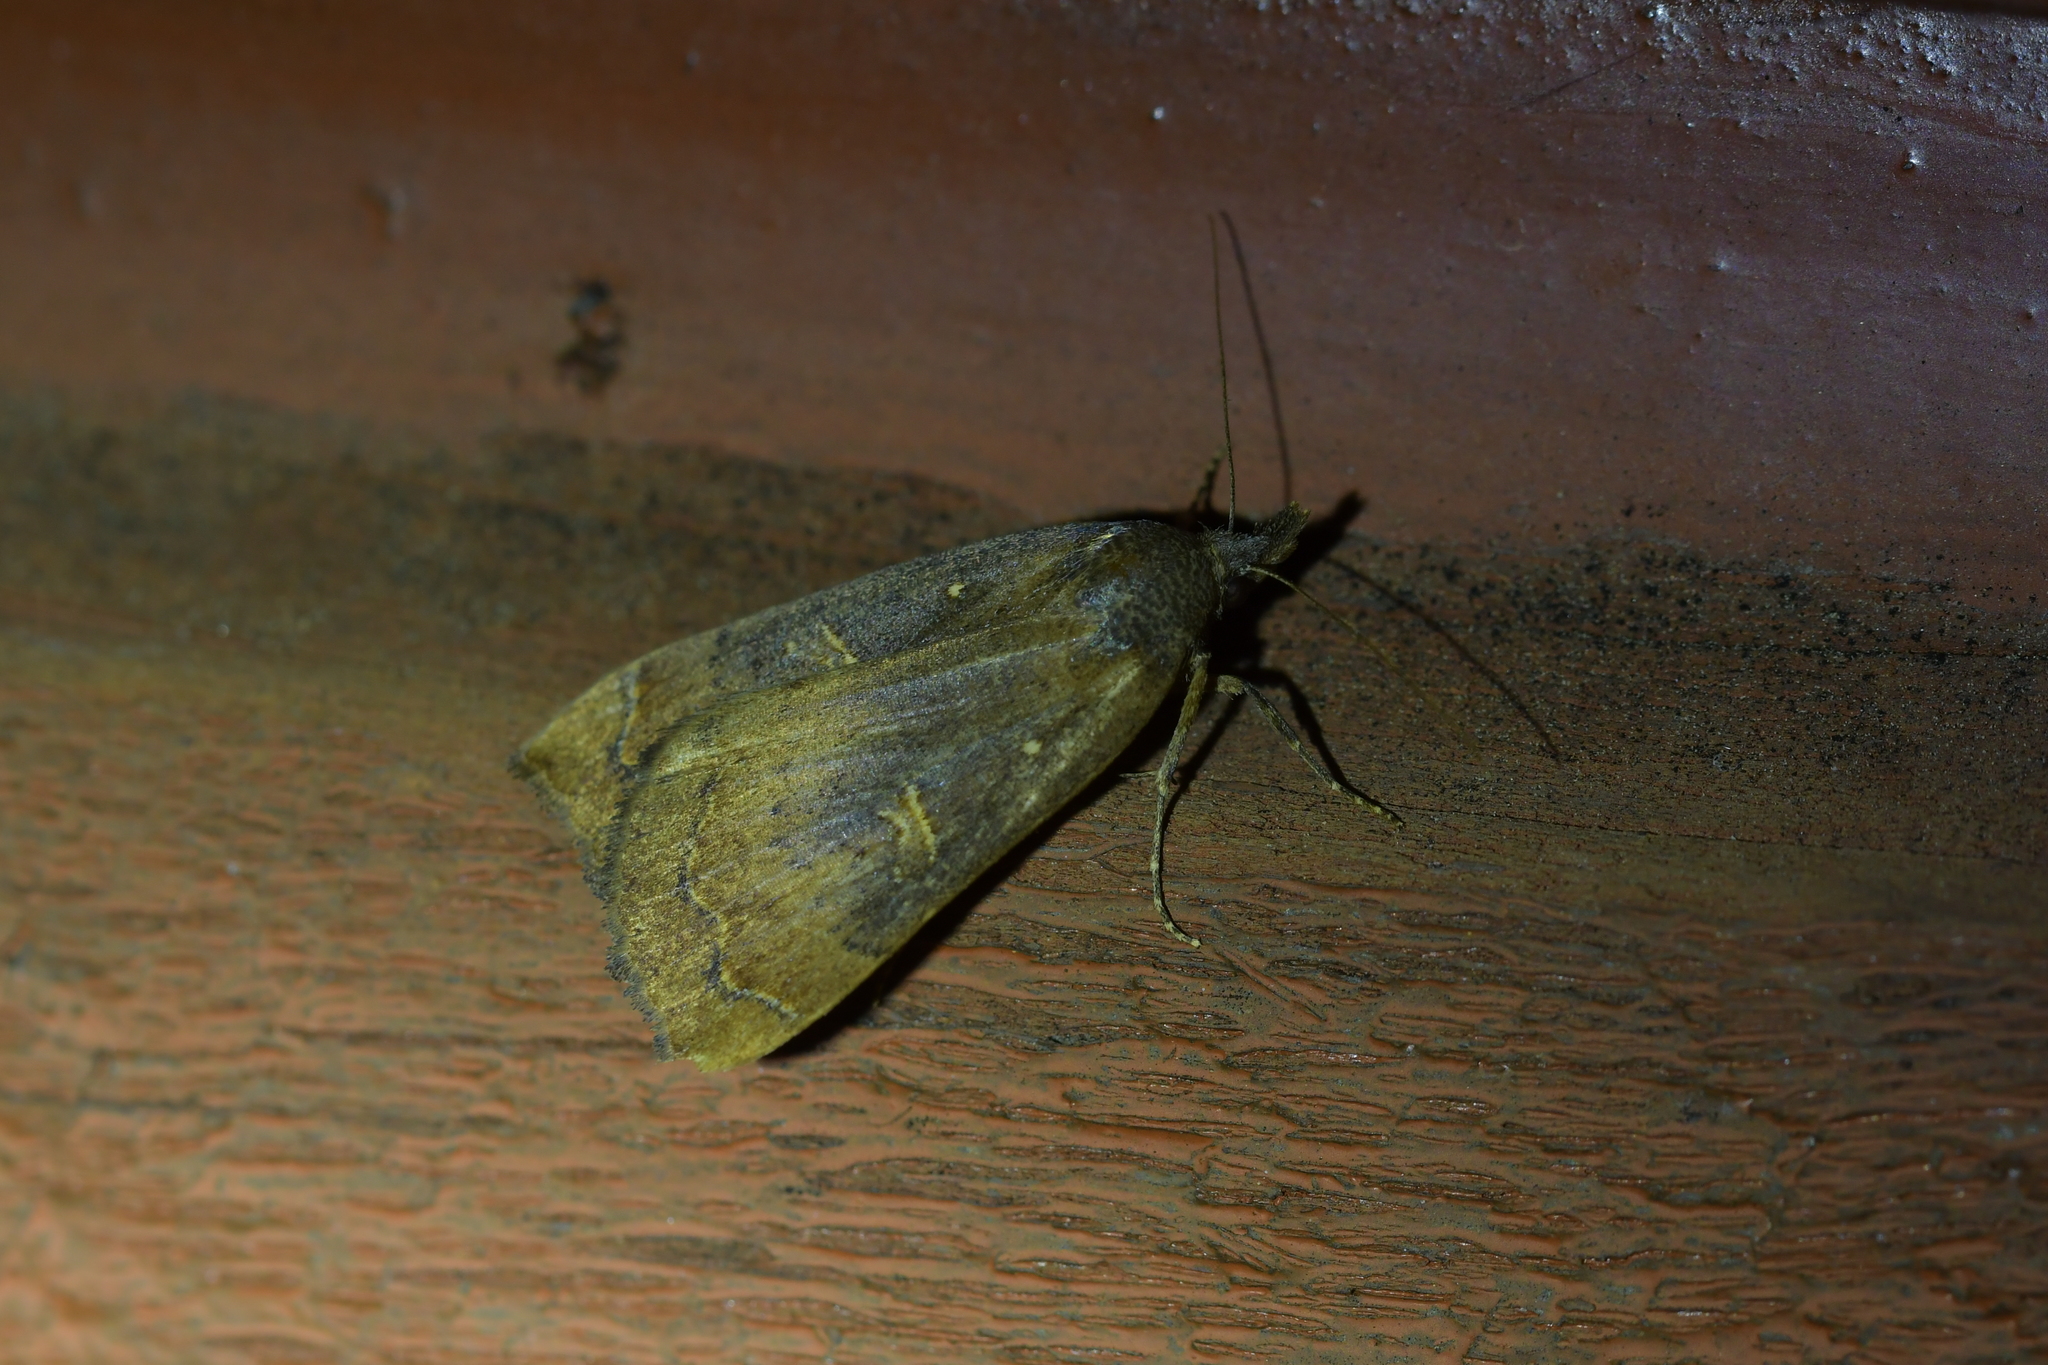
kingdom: Animalia
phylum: Arthropoda
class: Insecta
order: Lepidoptera
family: Erebidae
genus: Rhapsa
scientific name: Rhapsa scotosialis
